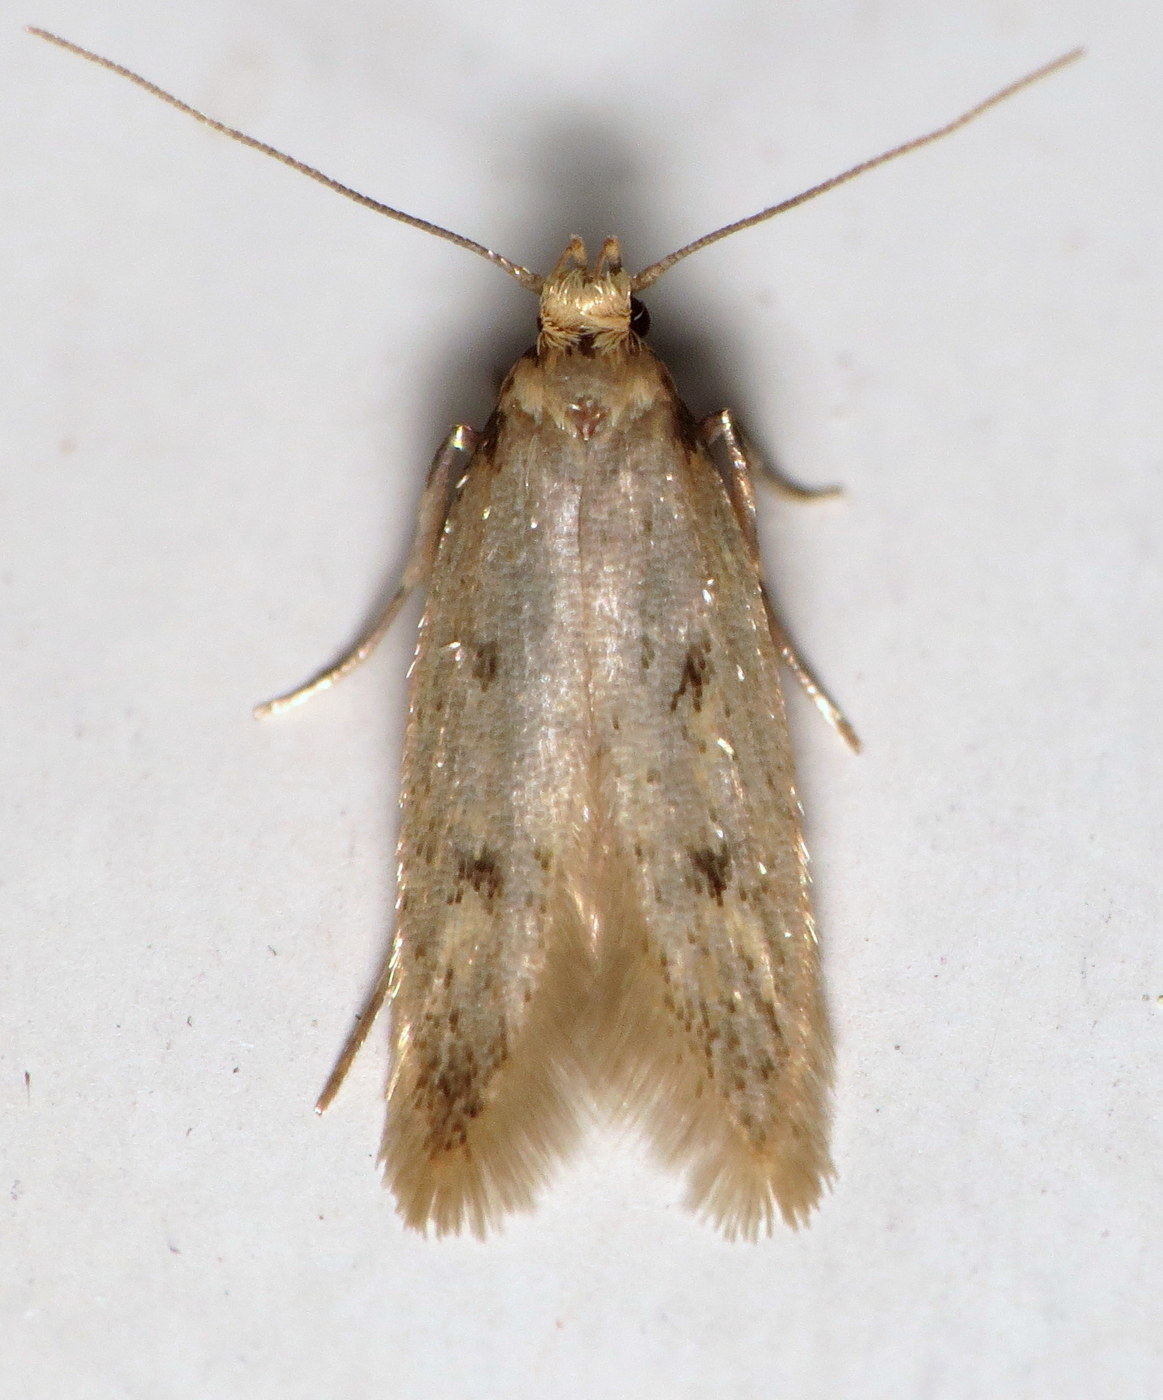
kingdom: Animalia
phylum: Arthropoda
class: Insecta
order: Lepidoptera
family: Oecophoridae
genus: Carolana
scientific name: Carolana ascriptella
